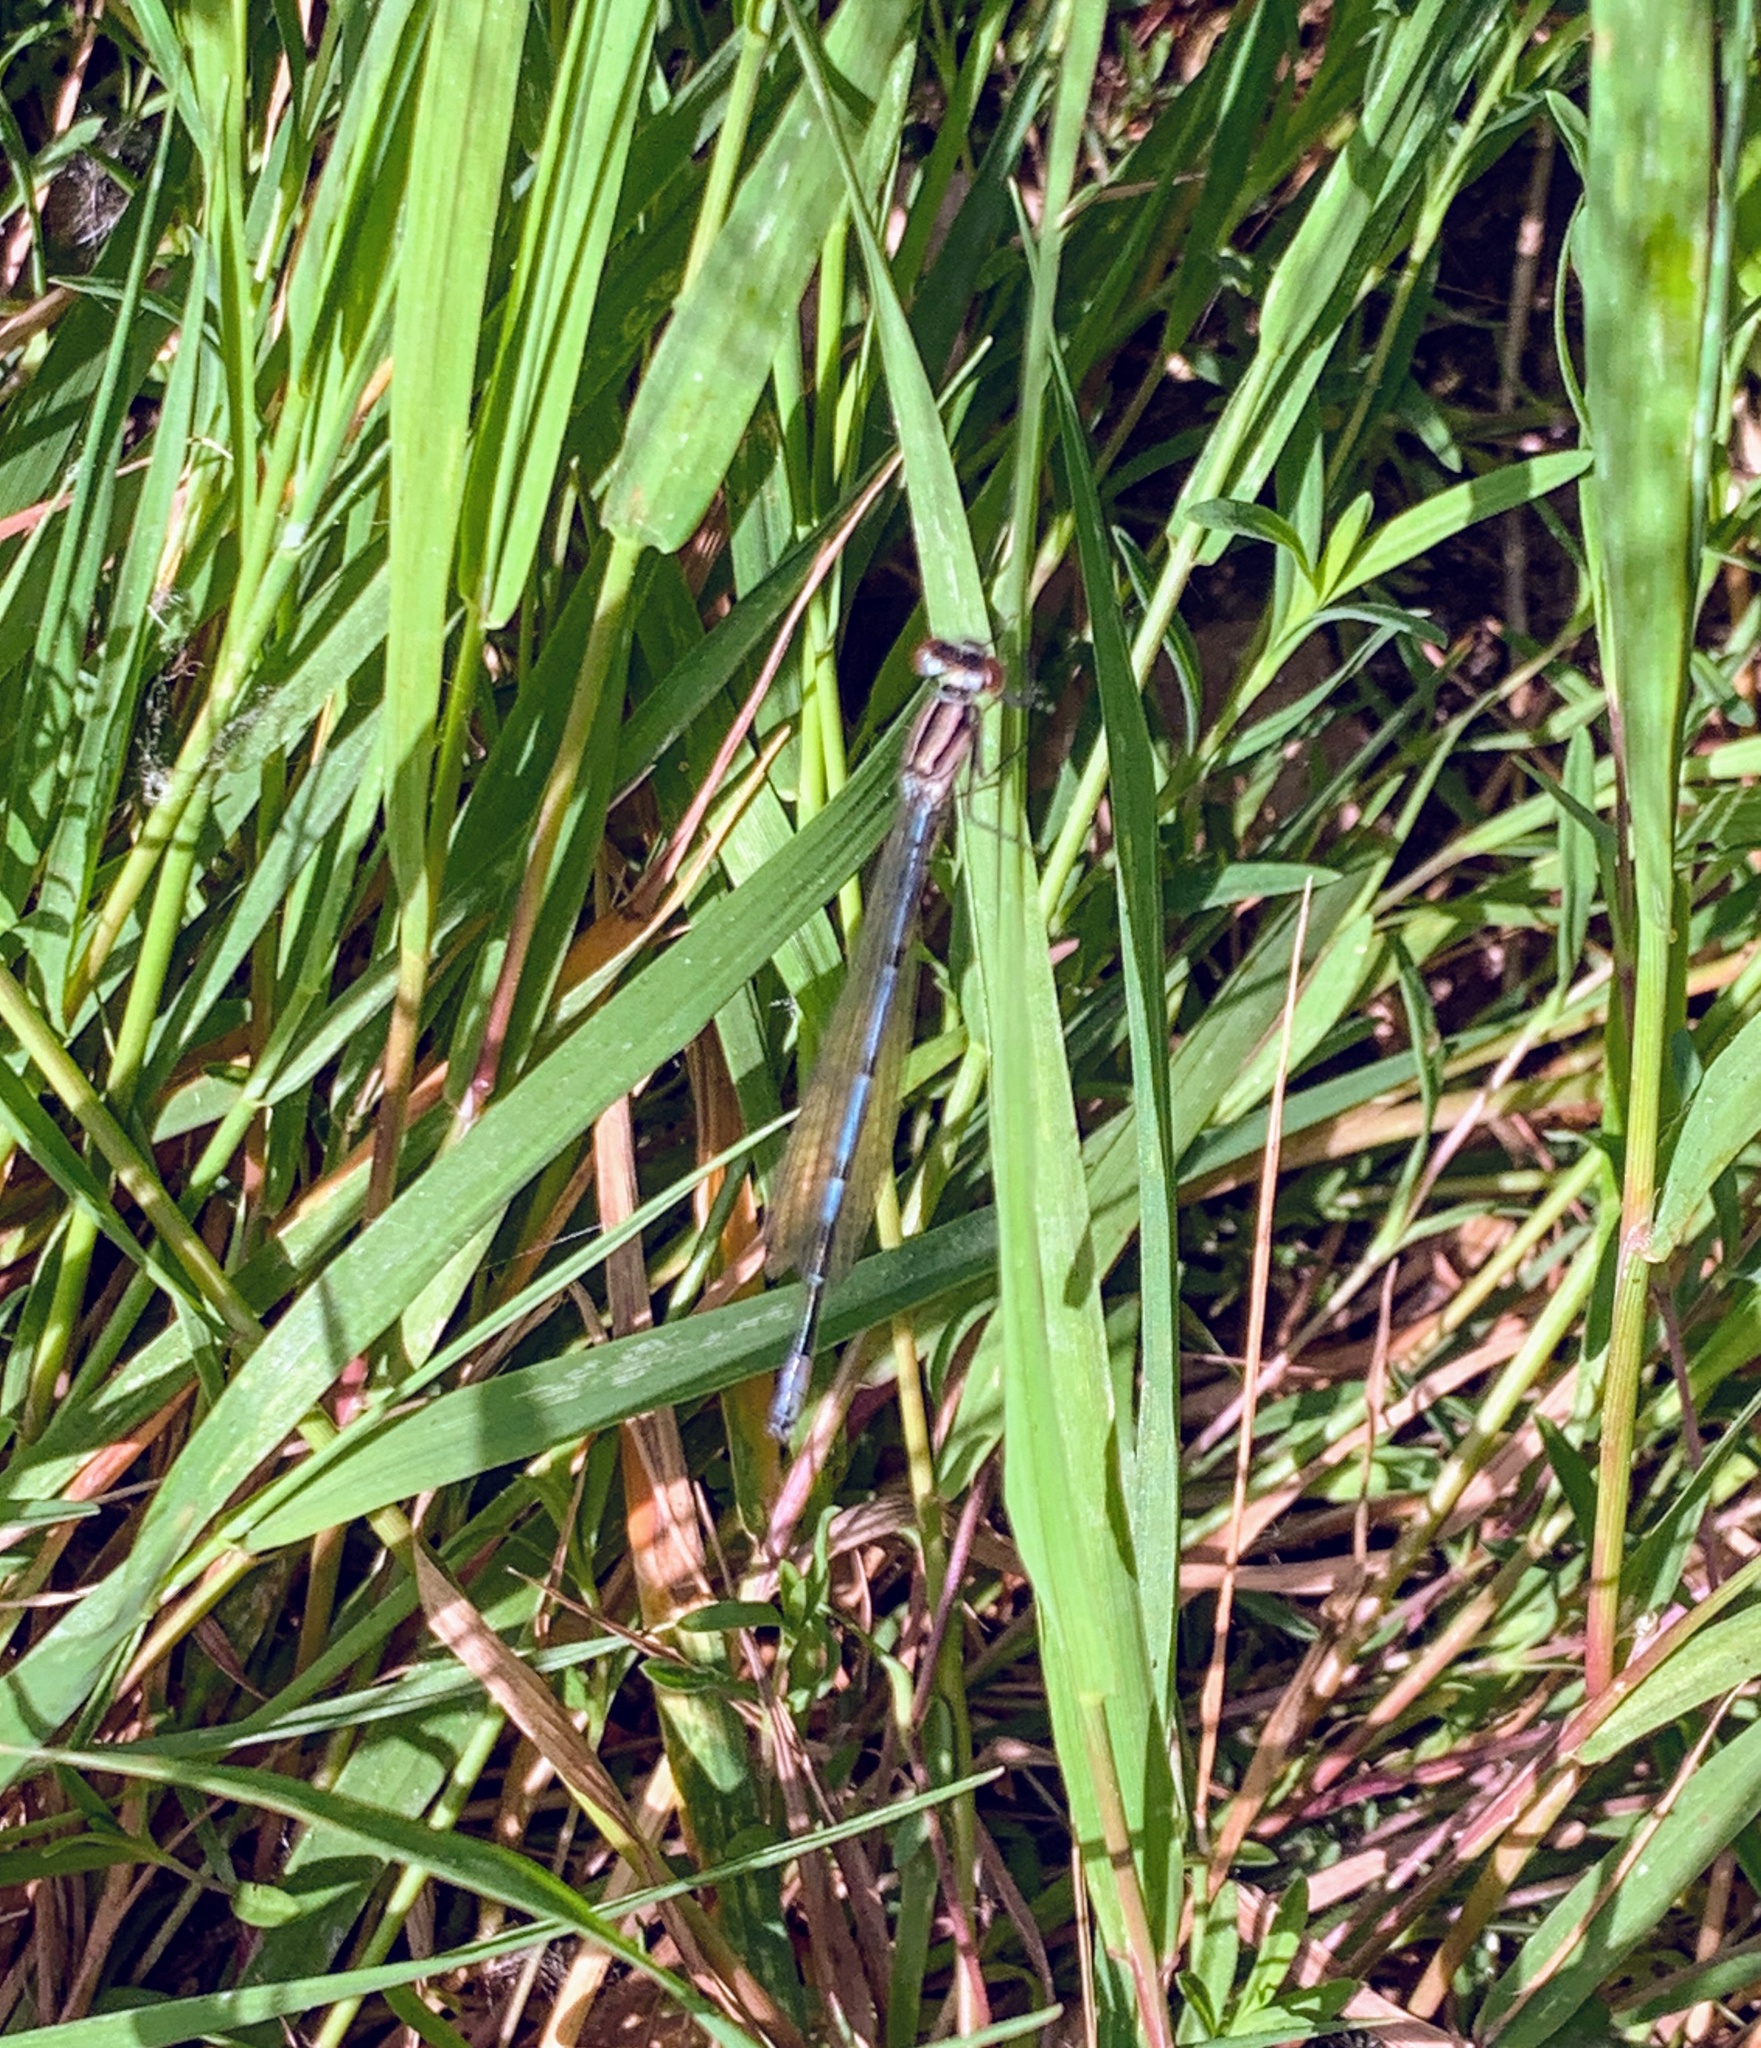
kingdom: Animalia
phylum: Arthropoda
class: Insecta
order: Odonata
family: Coenagrionidae
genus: Coenagrion
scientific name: Coenagrion puella
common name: Azure damselfly
